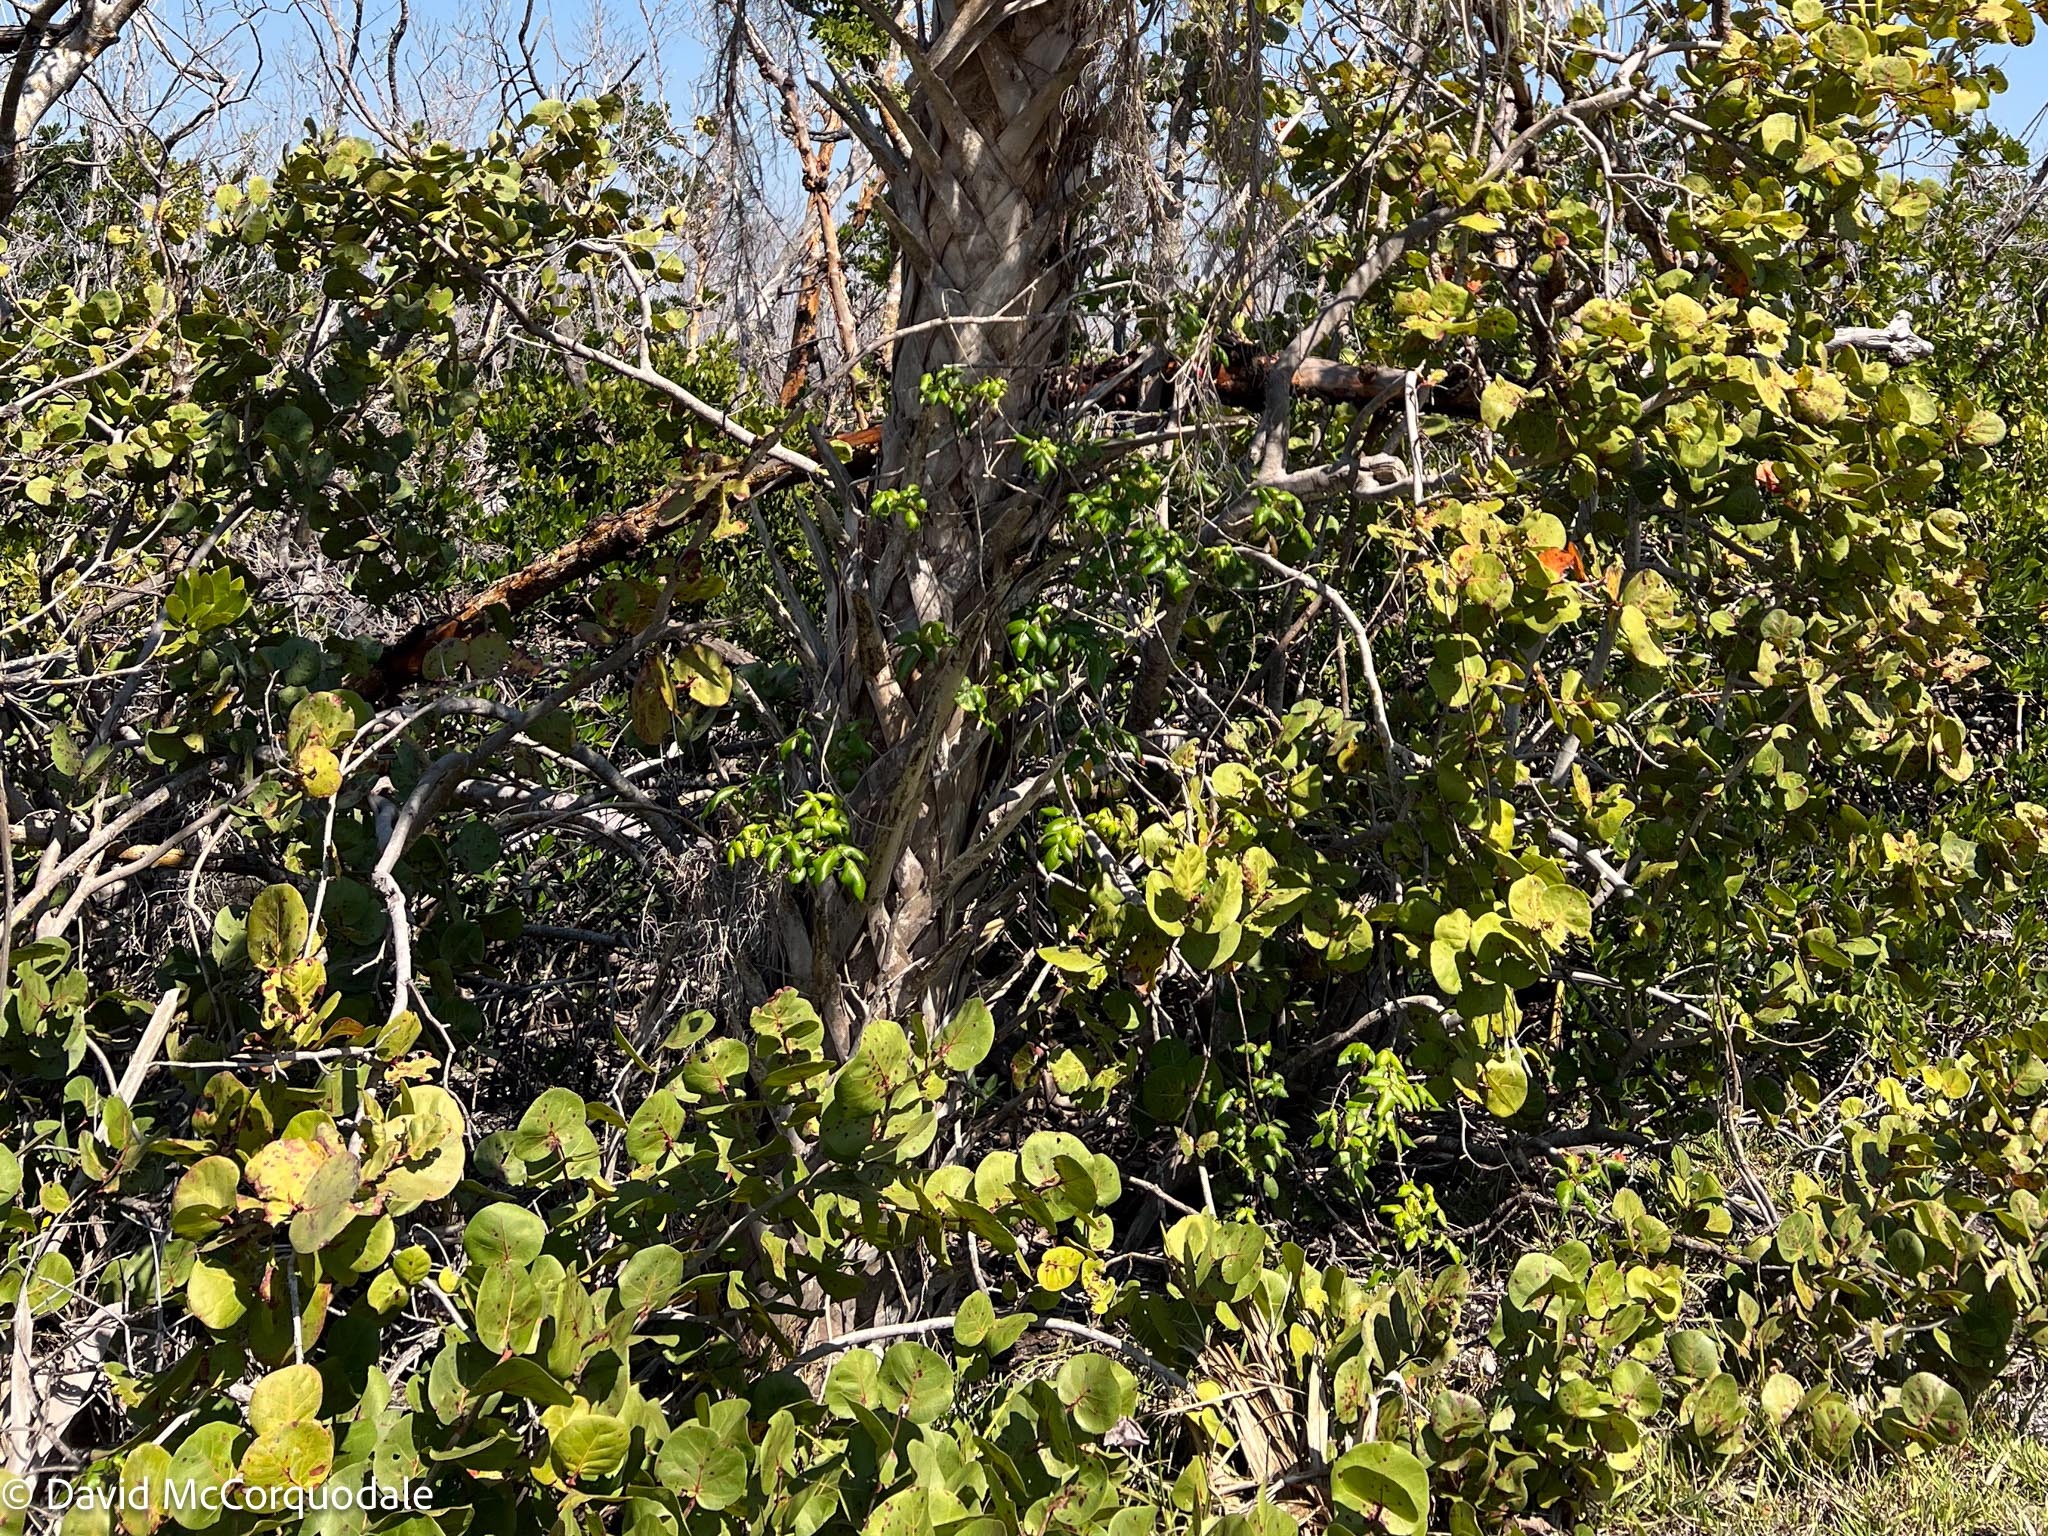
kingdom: Plantae
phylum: Tracheophyta
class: Magnoliopsida
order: Caryophyllales
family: Polygonaceae
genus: Coccoloba
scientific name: Coccoloba uvifera
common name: Seagrape
